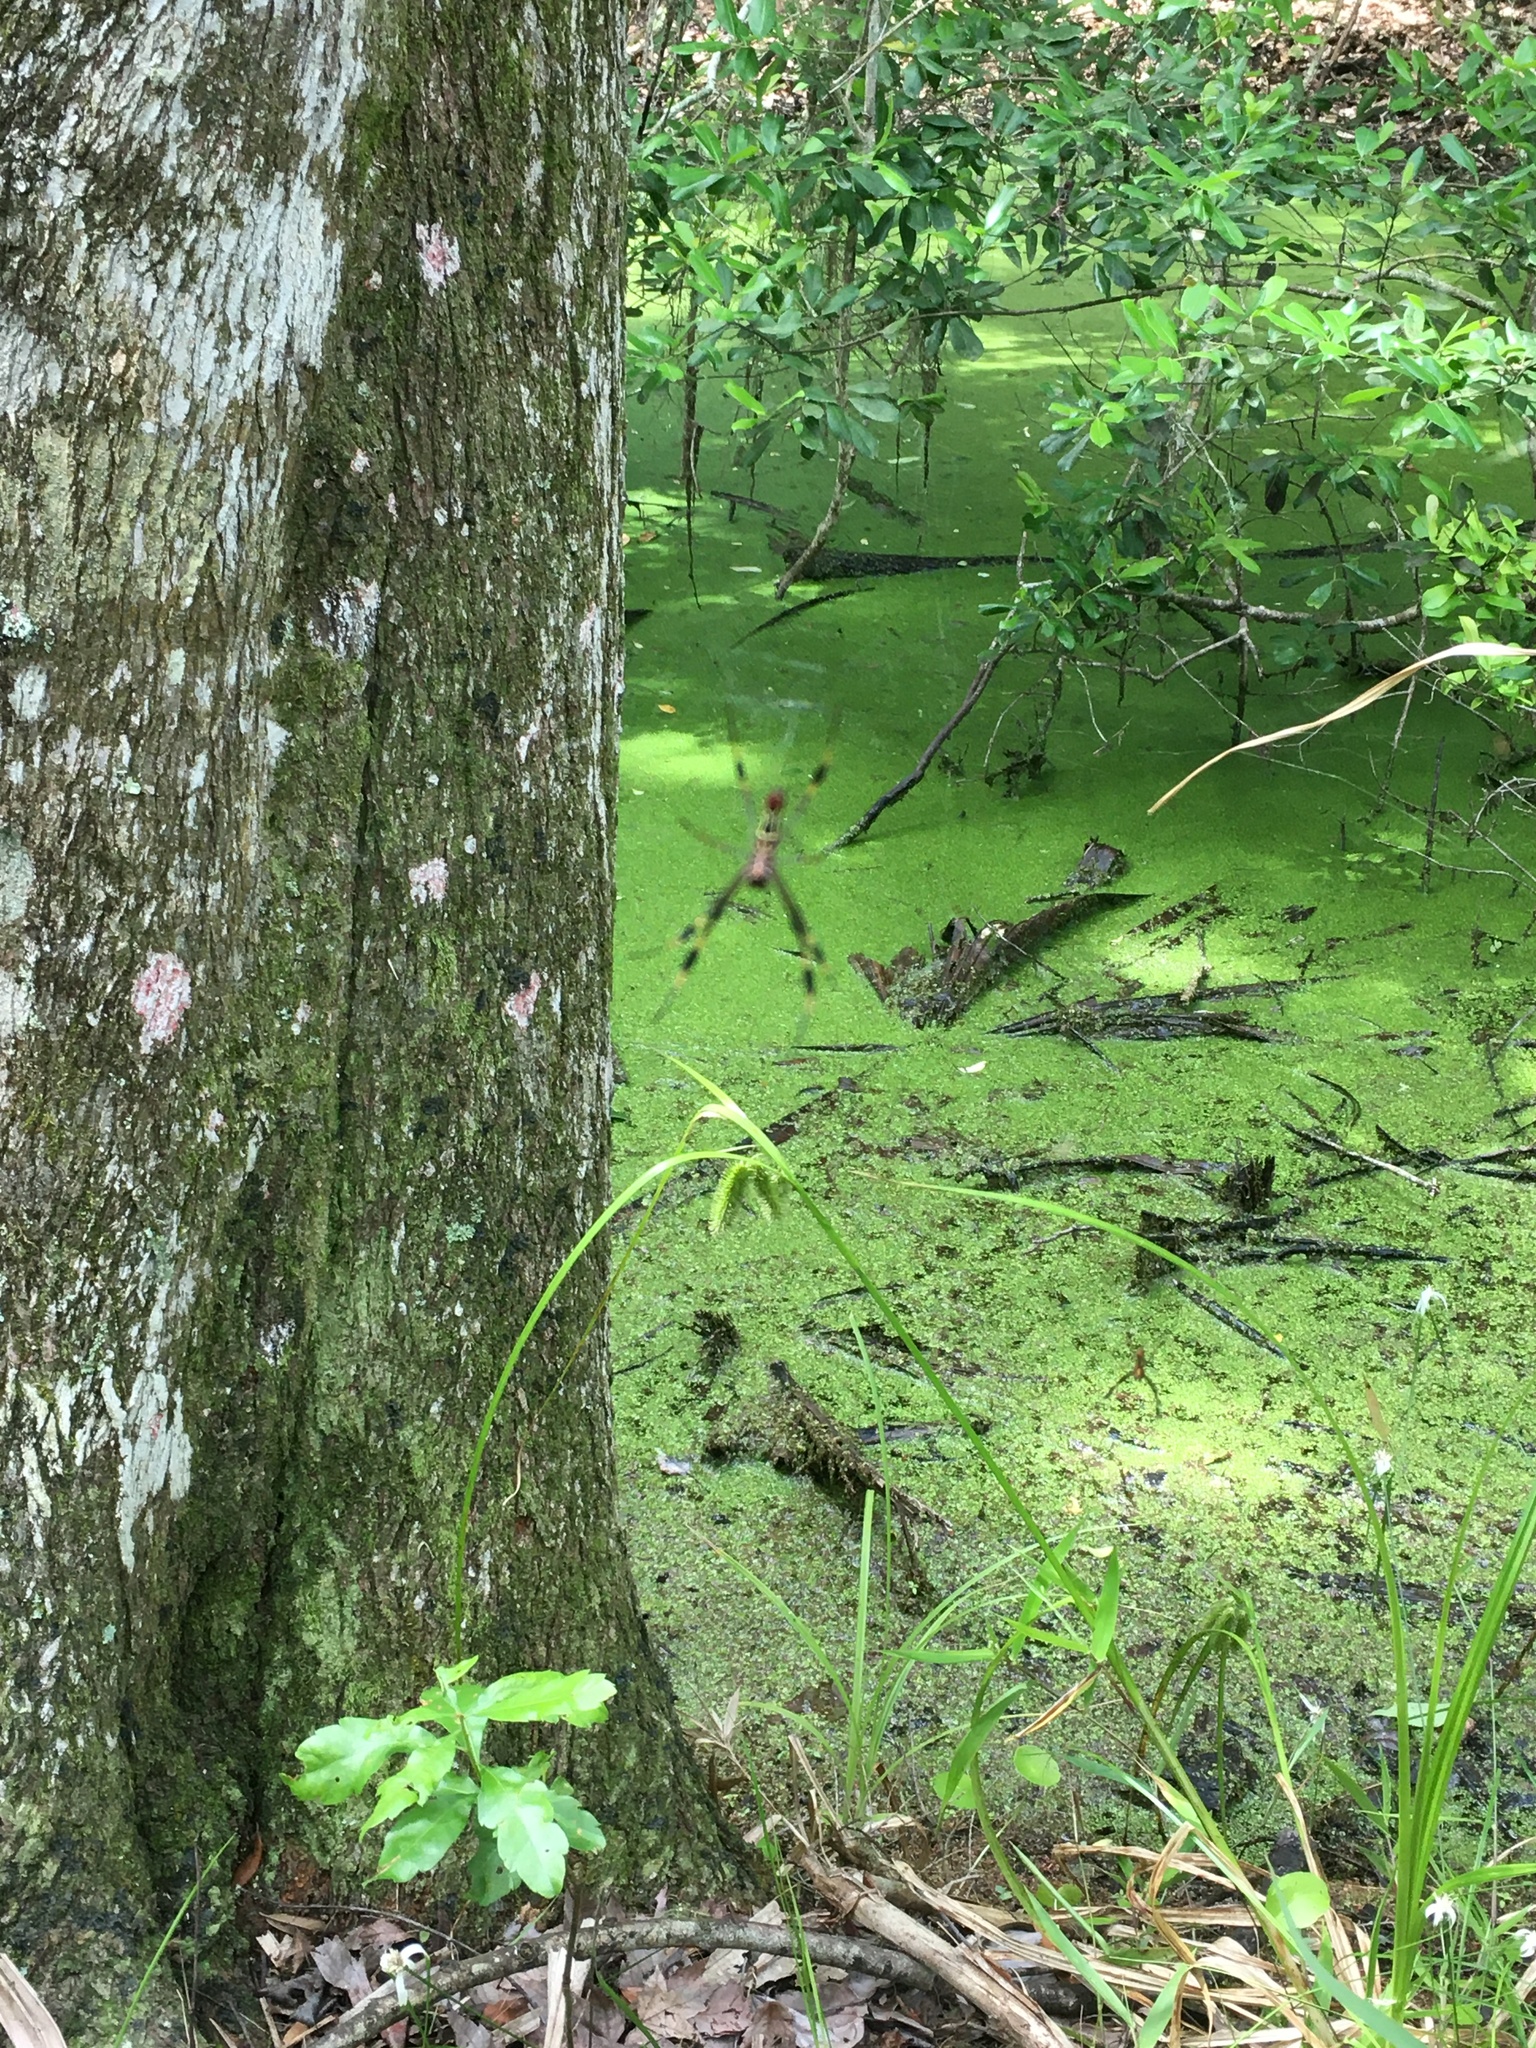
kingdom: Animalia
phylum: Arthropoda
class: Arachnida
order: Araneae
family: Araneidae
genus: Trichonephila
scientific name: Trichonephila clavipes
